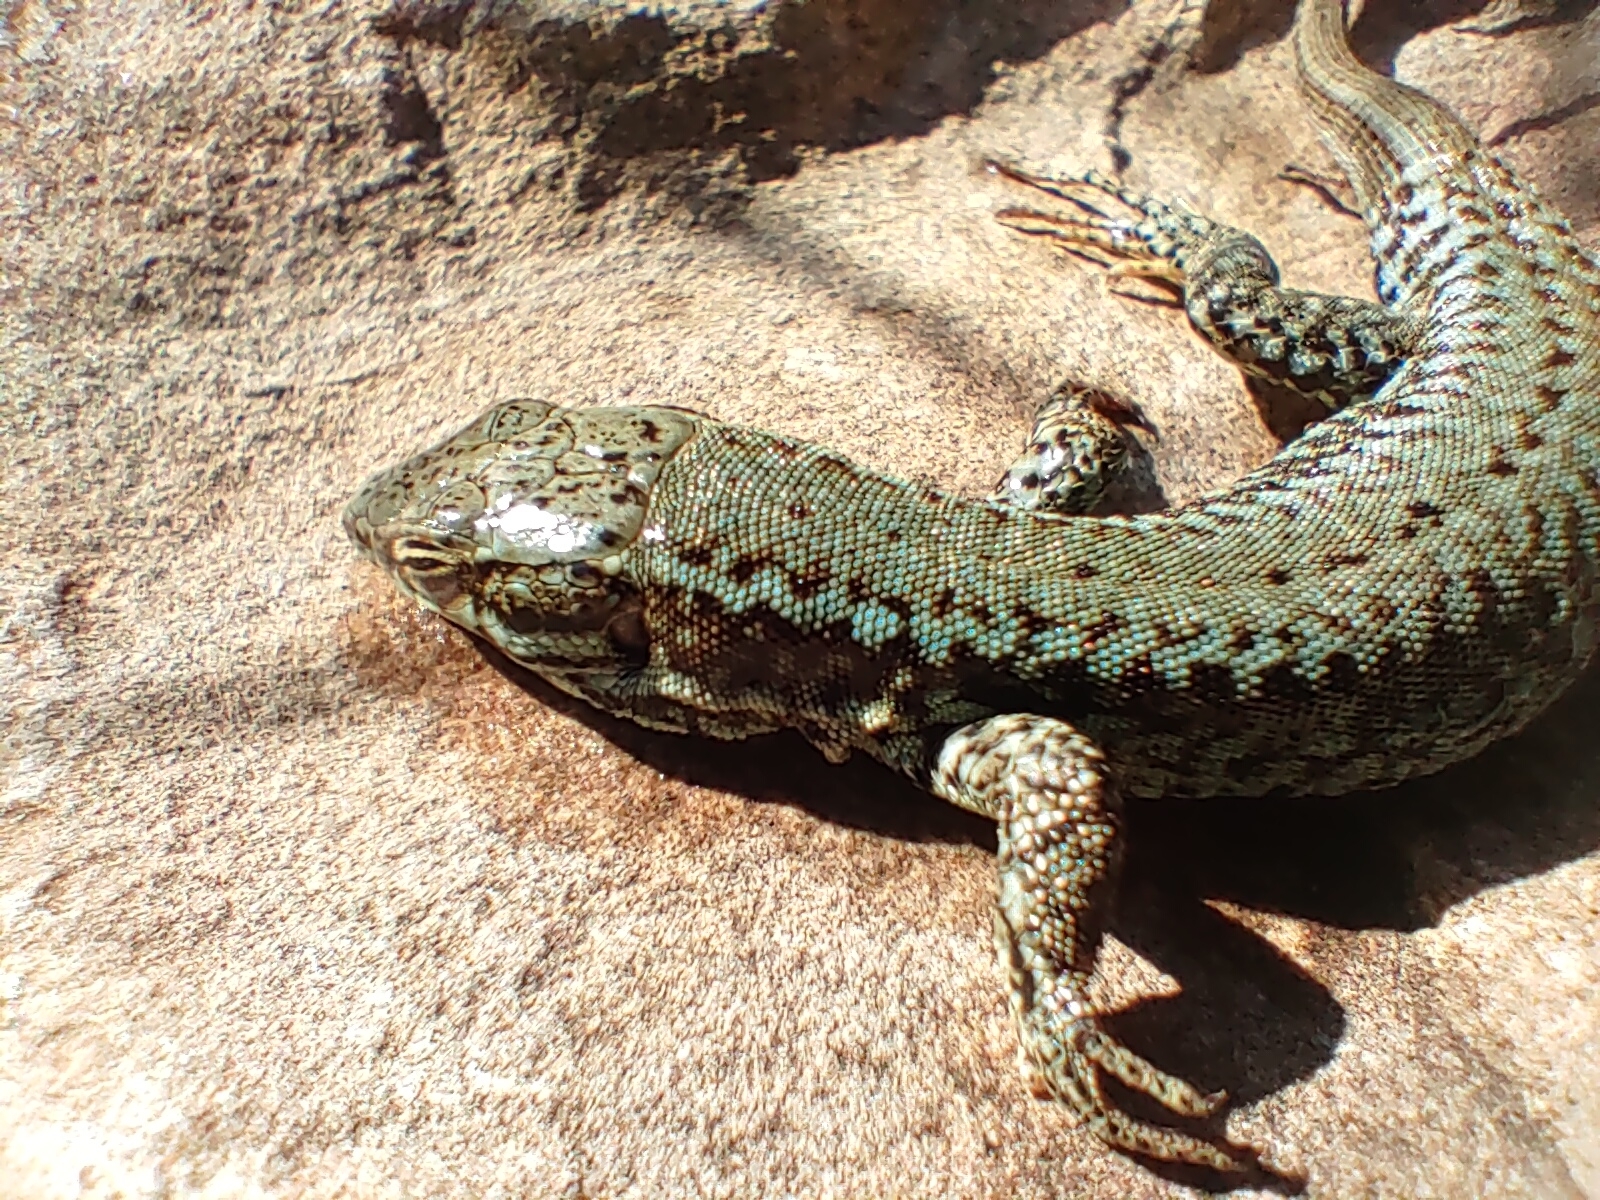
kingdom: Animalia
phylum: Chordata
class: Squamata
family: Lacertidae
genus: Podarcis
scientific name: Podarcis muralis
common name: Common wall lizard
